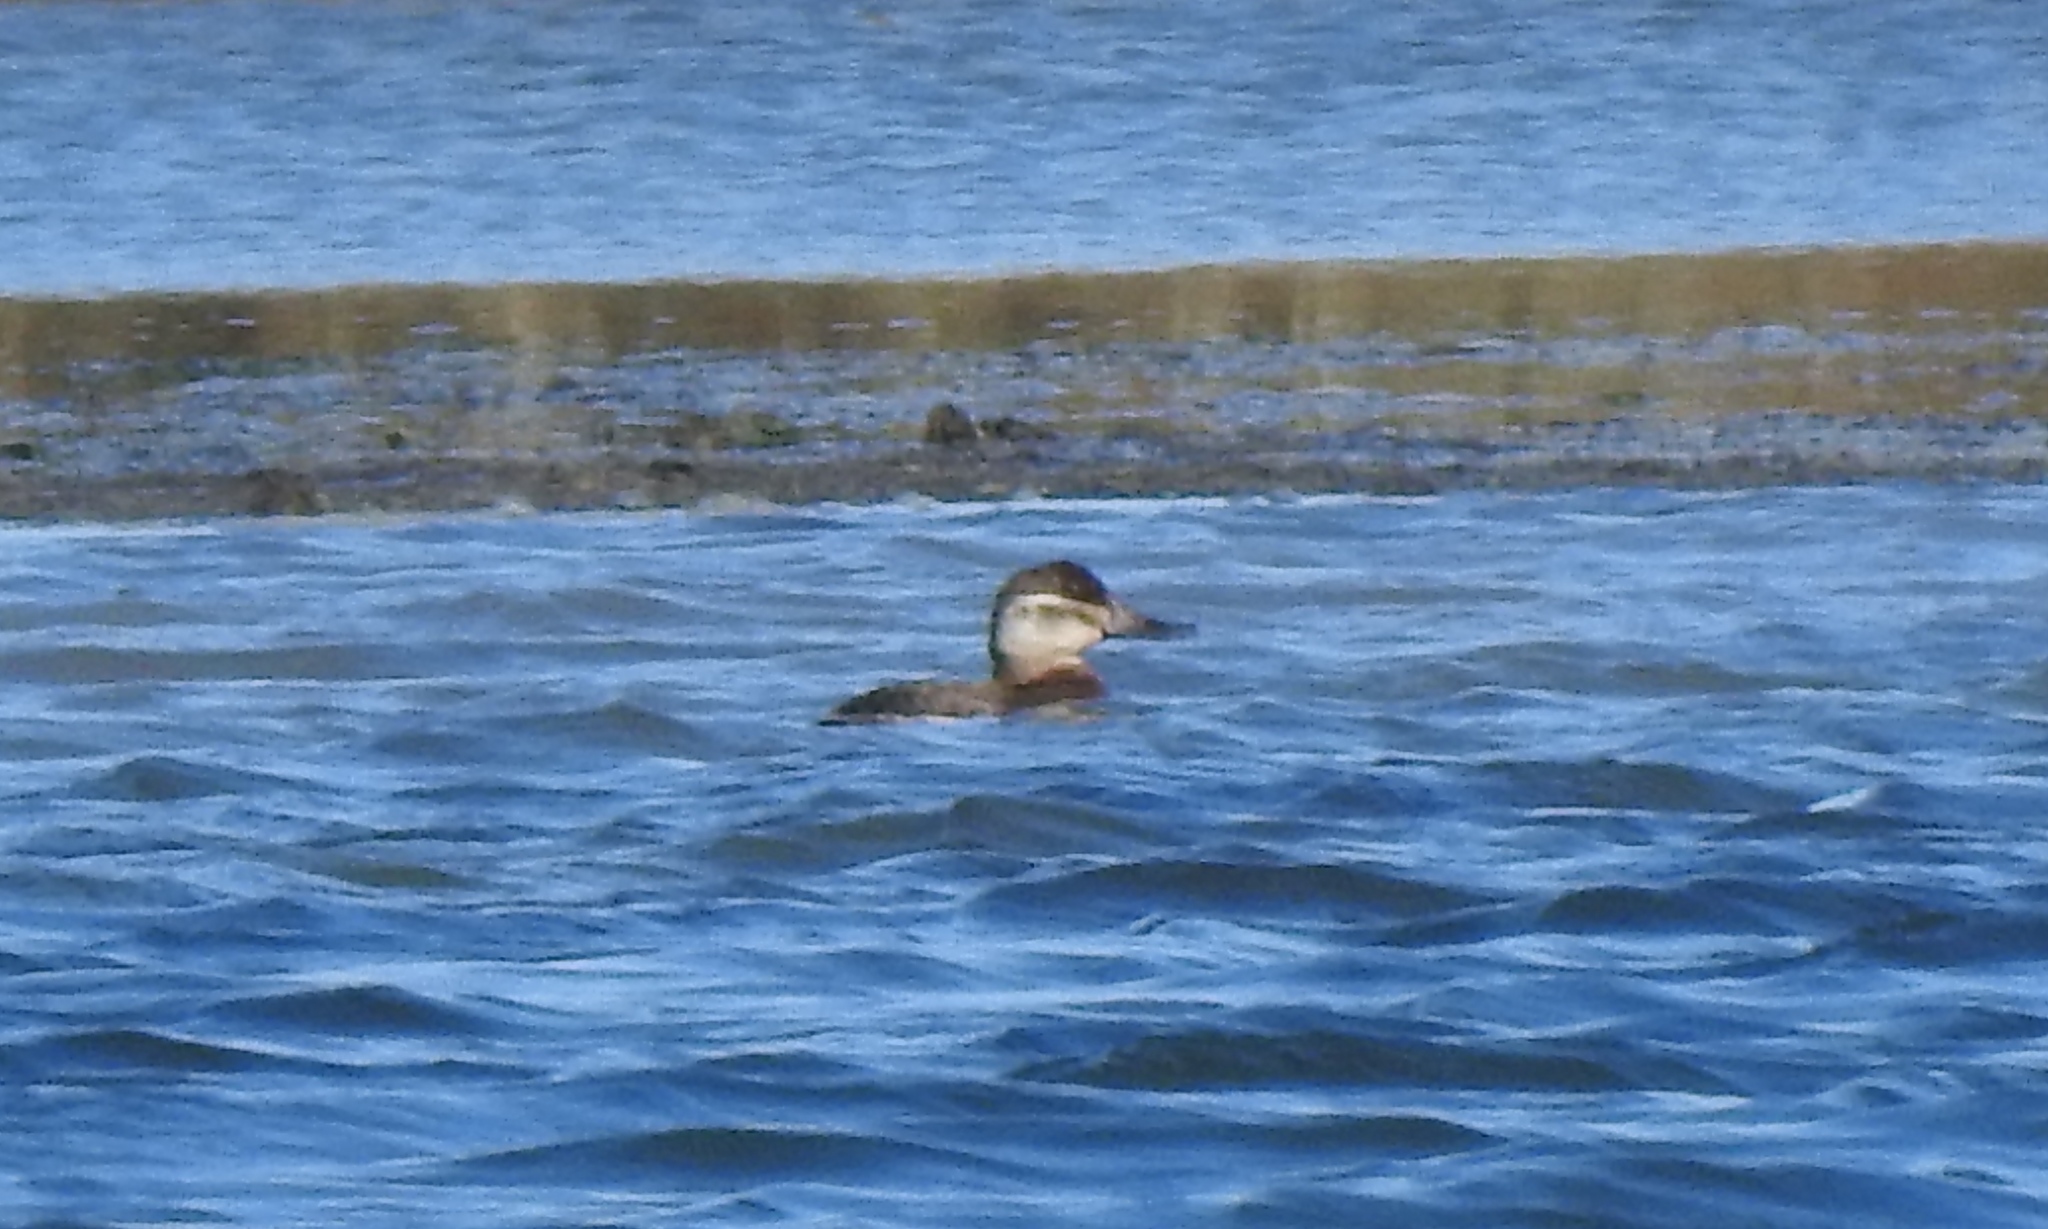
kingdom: Animalia
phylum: Chordata
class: Aves
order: Anseriformes
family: Anatidae
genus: Oxyura
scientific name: Oxyura jamaicensis
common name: Ruddy duck
